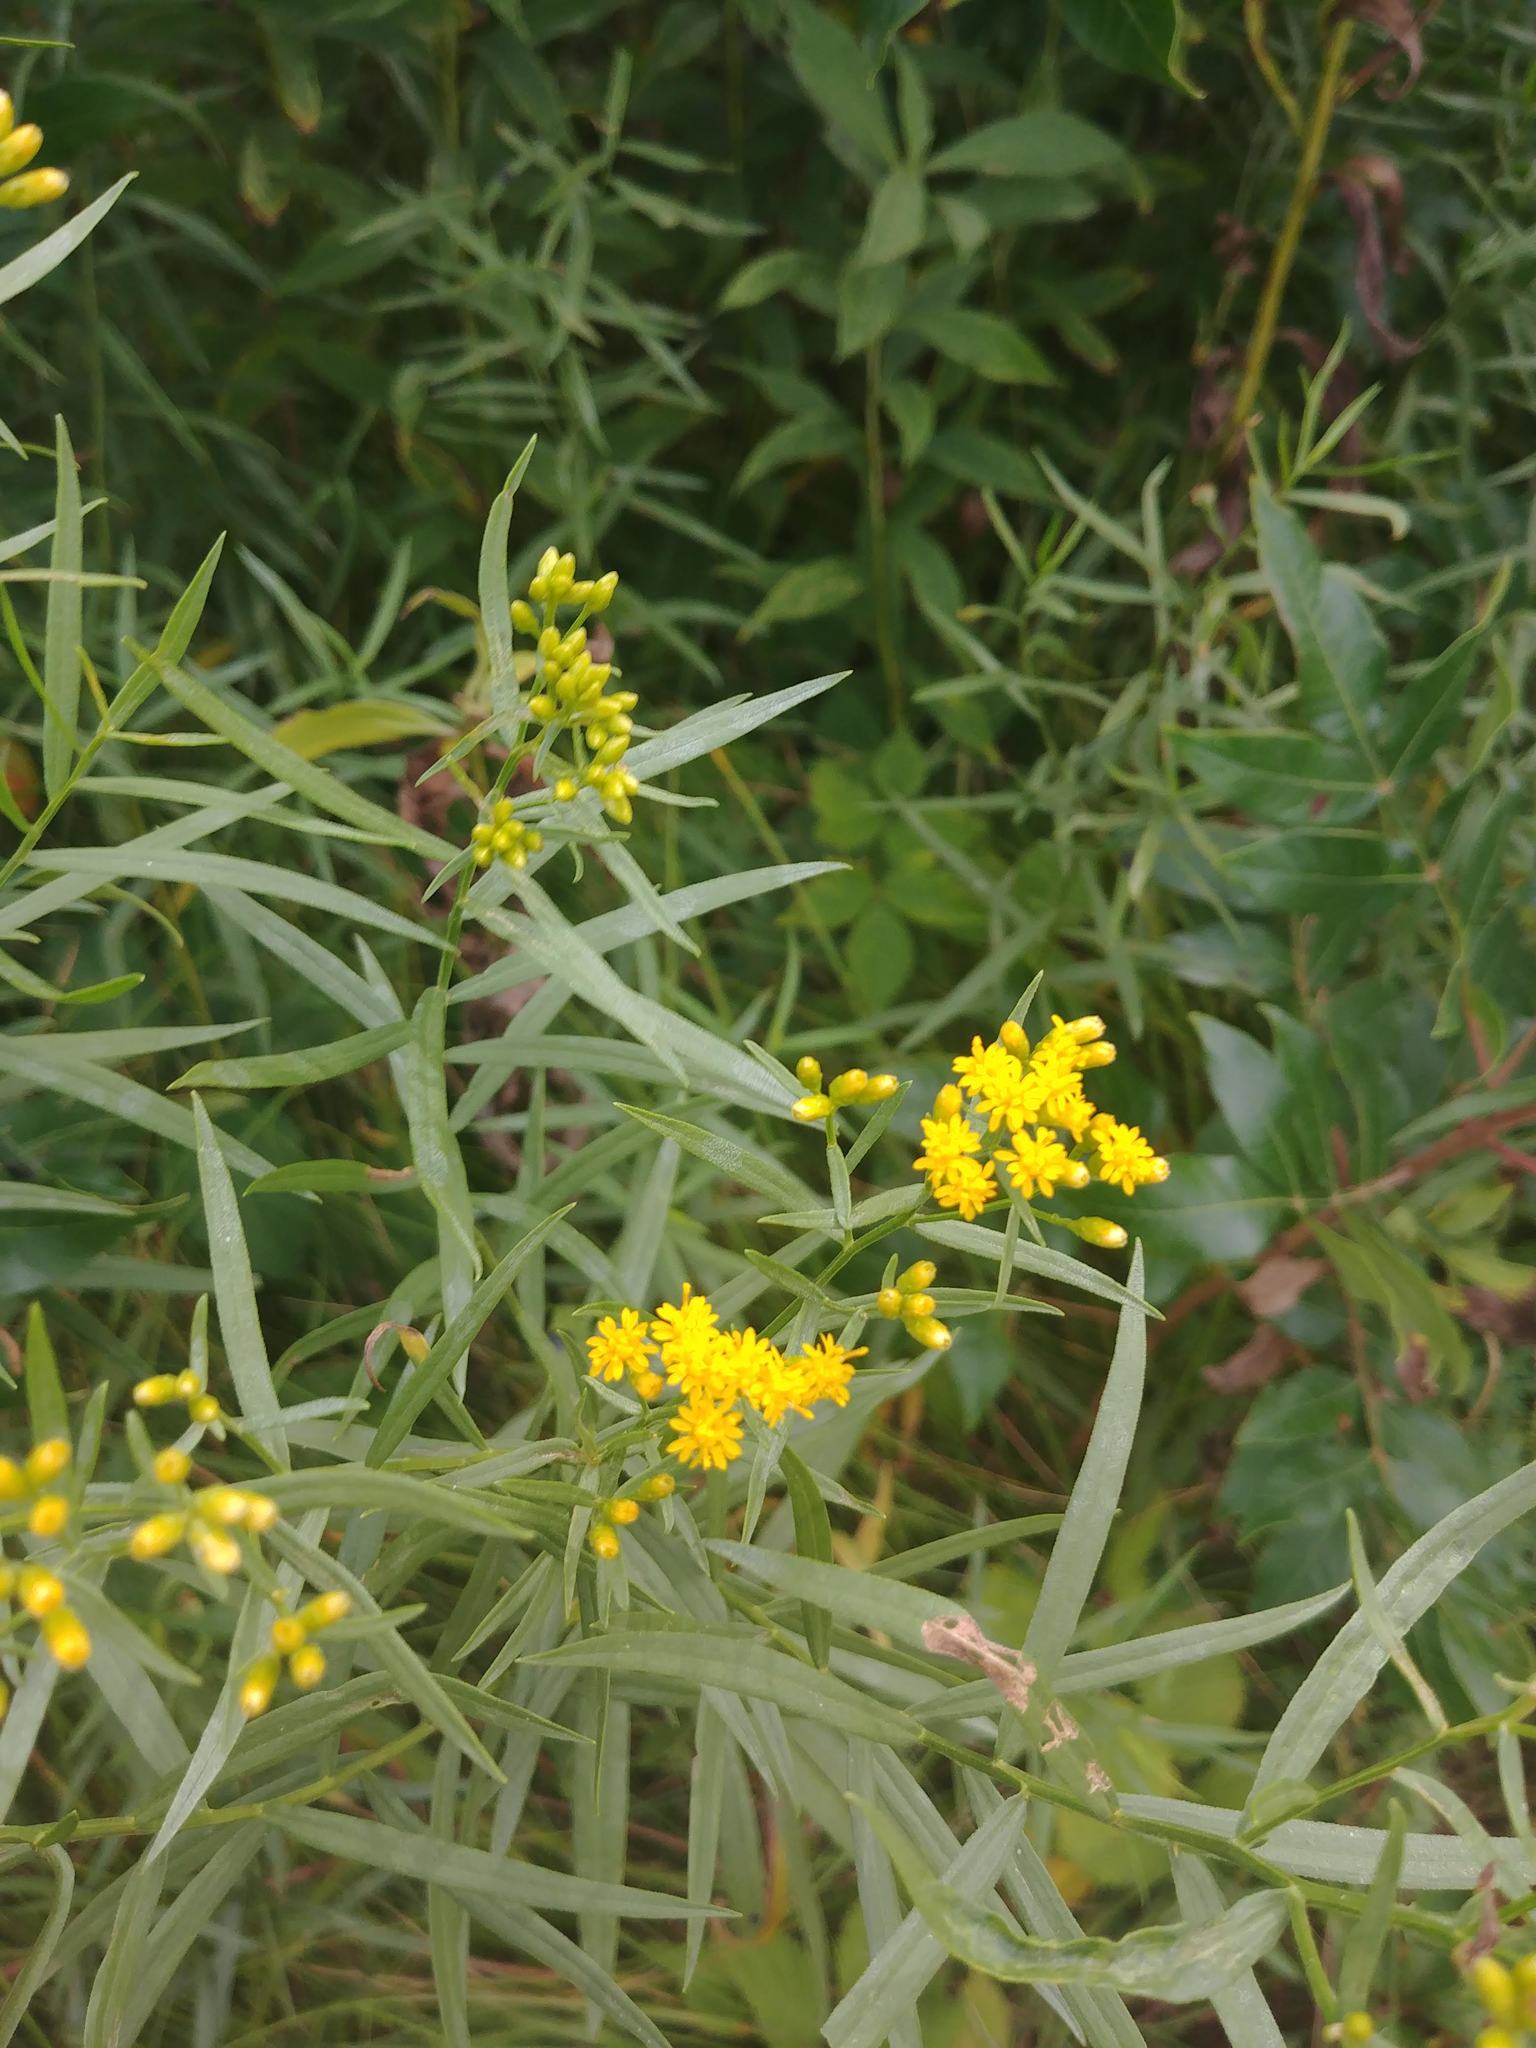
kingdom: Plantae
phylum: Tracheophyta
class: Magnoliopsida
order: Asterales
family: Asteraceae
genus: Euthamia
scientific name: Euthamia graminifolia
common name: Common goldentop
